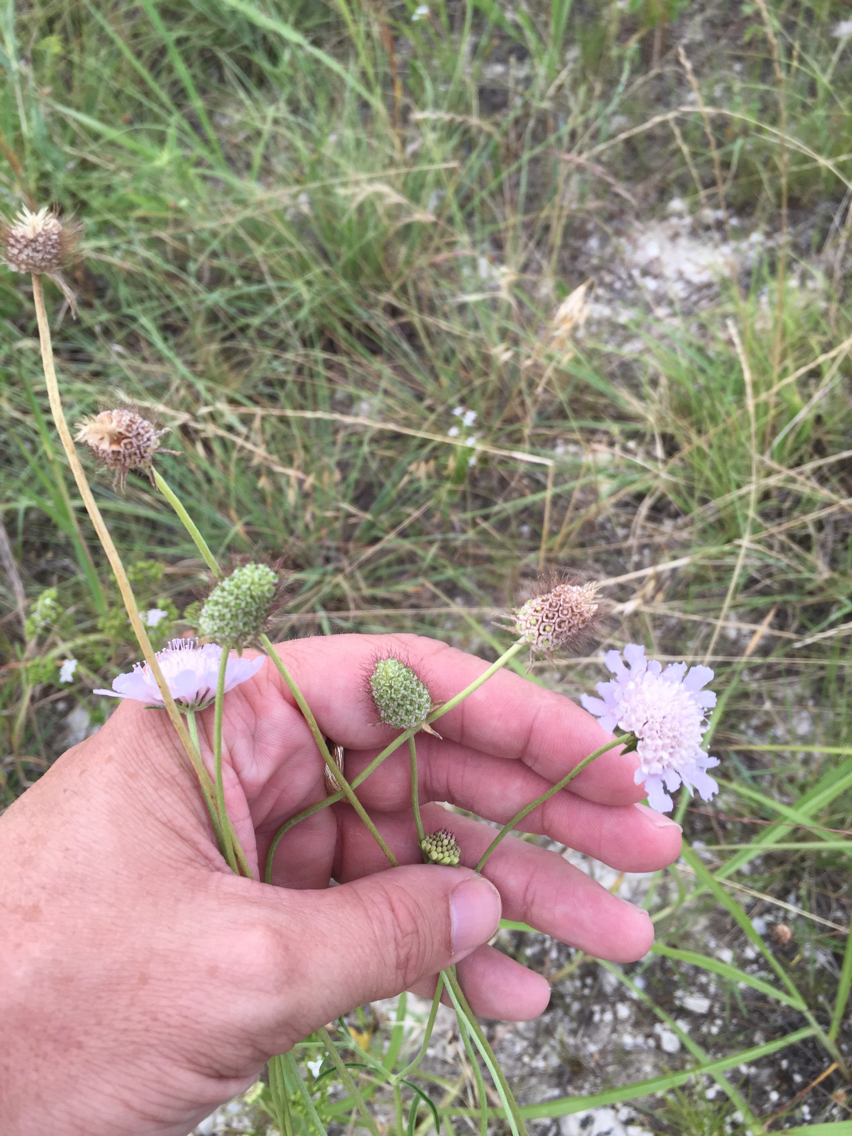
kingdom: Plantae
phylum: Tracheophyta
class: Magnoliopsida
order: Dipsacales
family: Caprifoliaceae
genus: Sixalix
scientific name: Sixalix atropurpurea
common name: Sweet scabious
